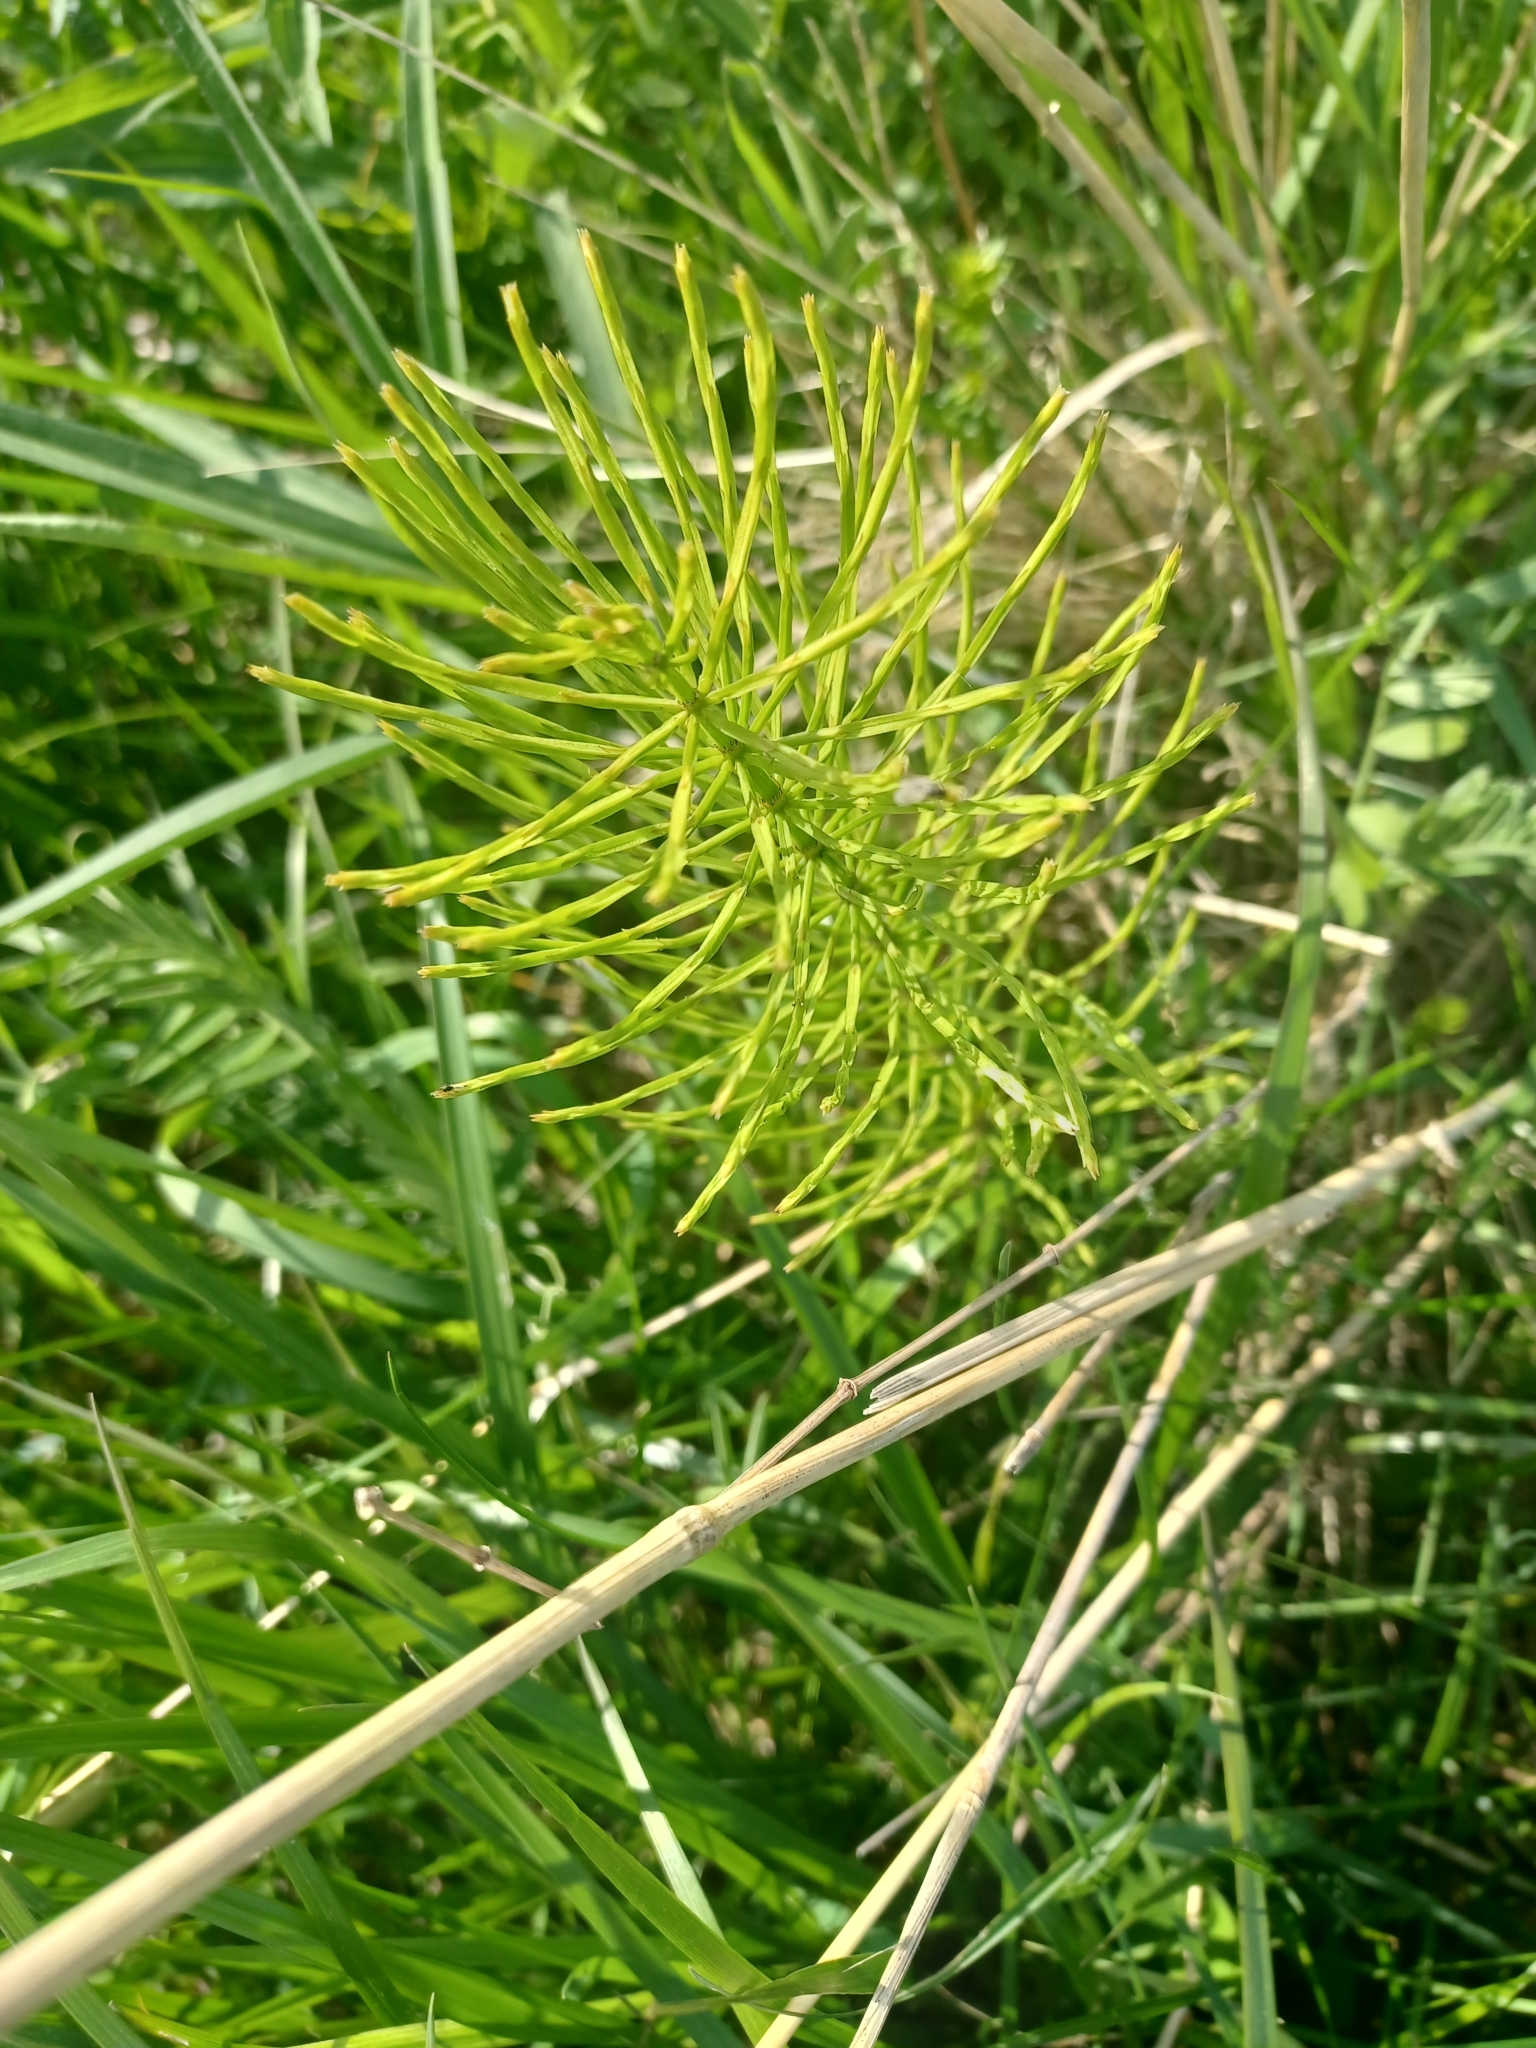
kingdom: Plantae
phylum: Tracheophyta
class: Polypodiopsida
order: Equisetales
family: Equisetaceae
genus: Equisetum
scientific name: Equisetum arvense
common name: Field horsetail
